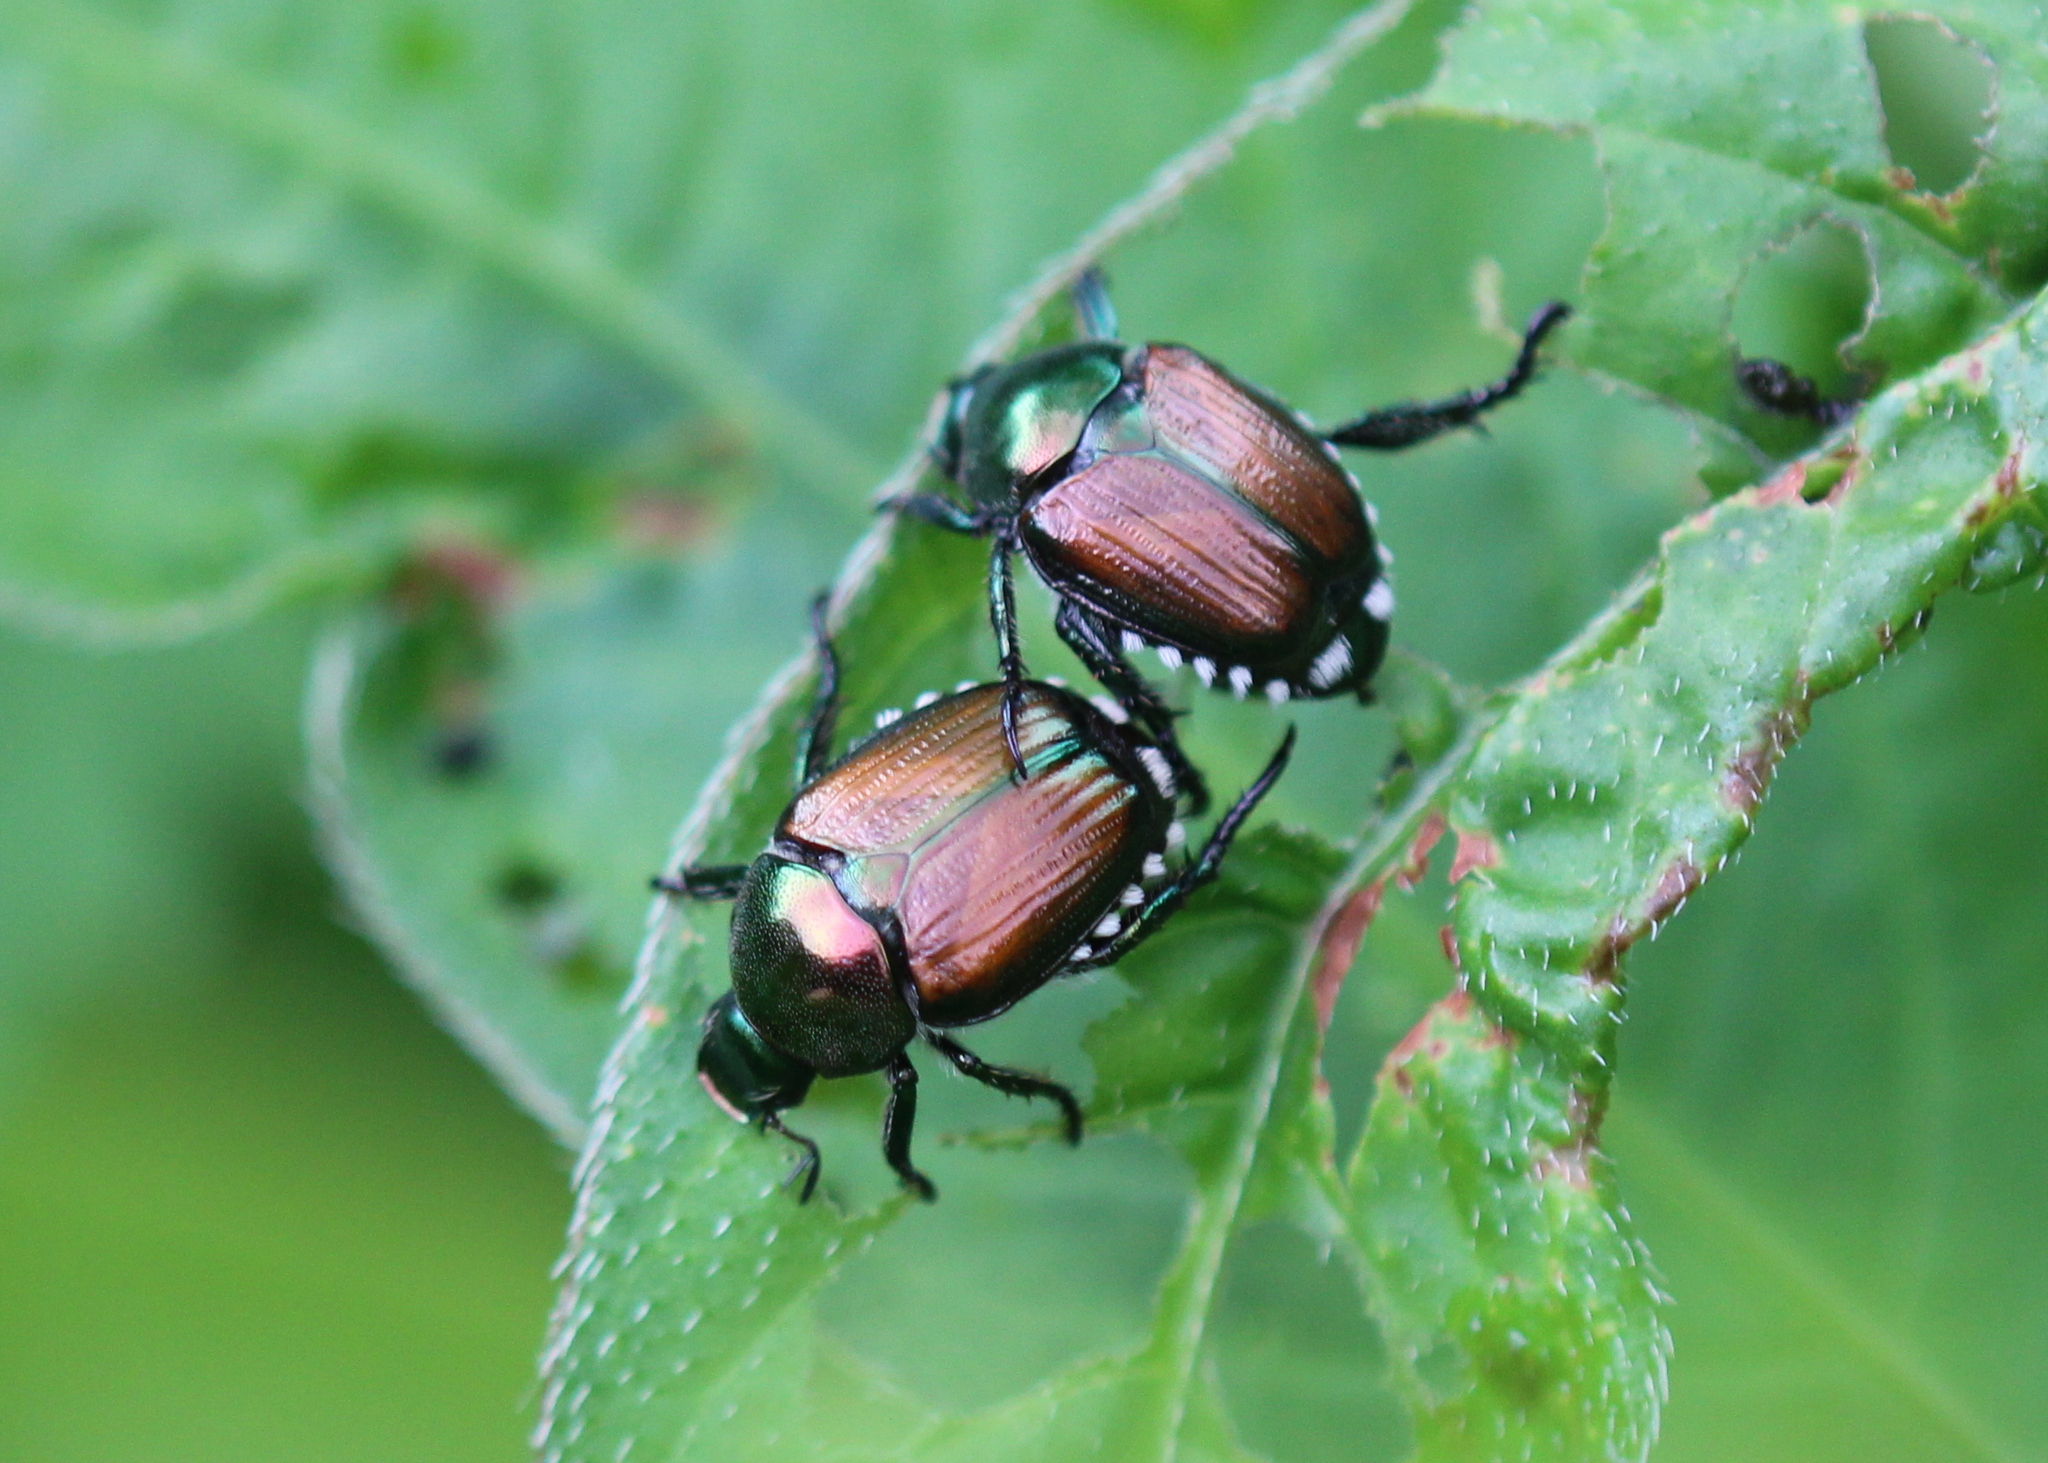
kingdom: Animalia
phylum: Arthropoda
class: Insecta
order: Coleoptera
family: Scarabaeidae
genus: Popillia
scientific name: Popillia japonica
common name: Japanese beetle
